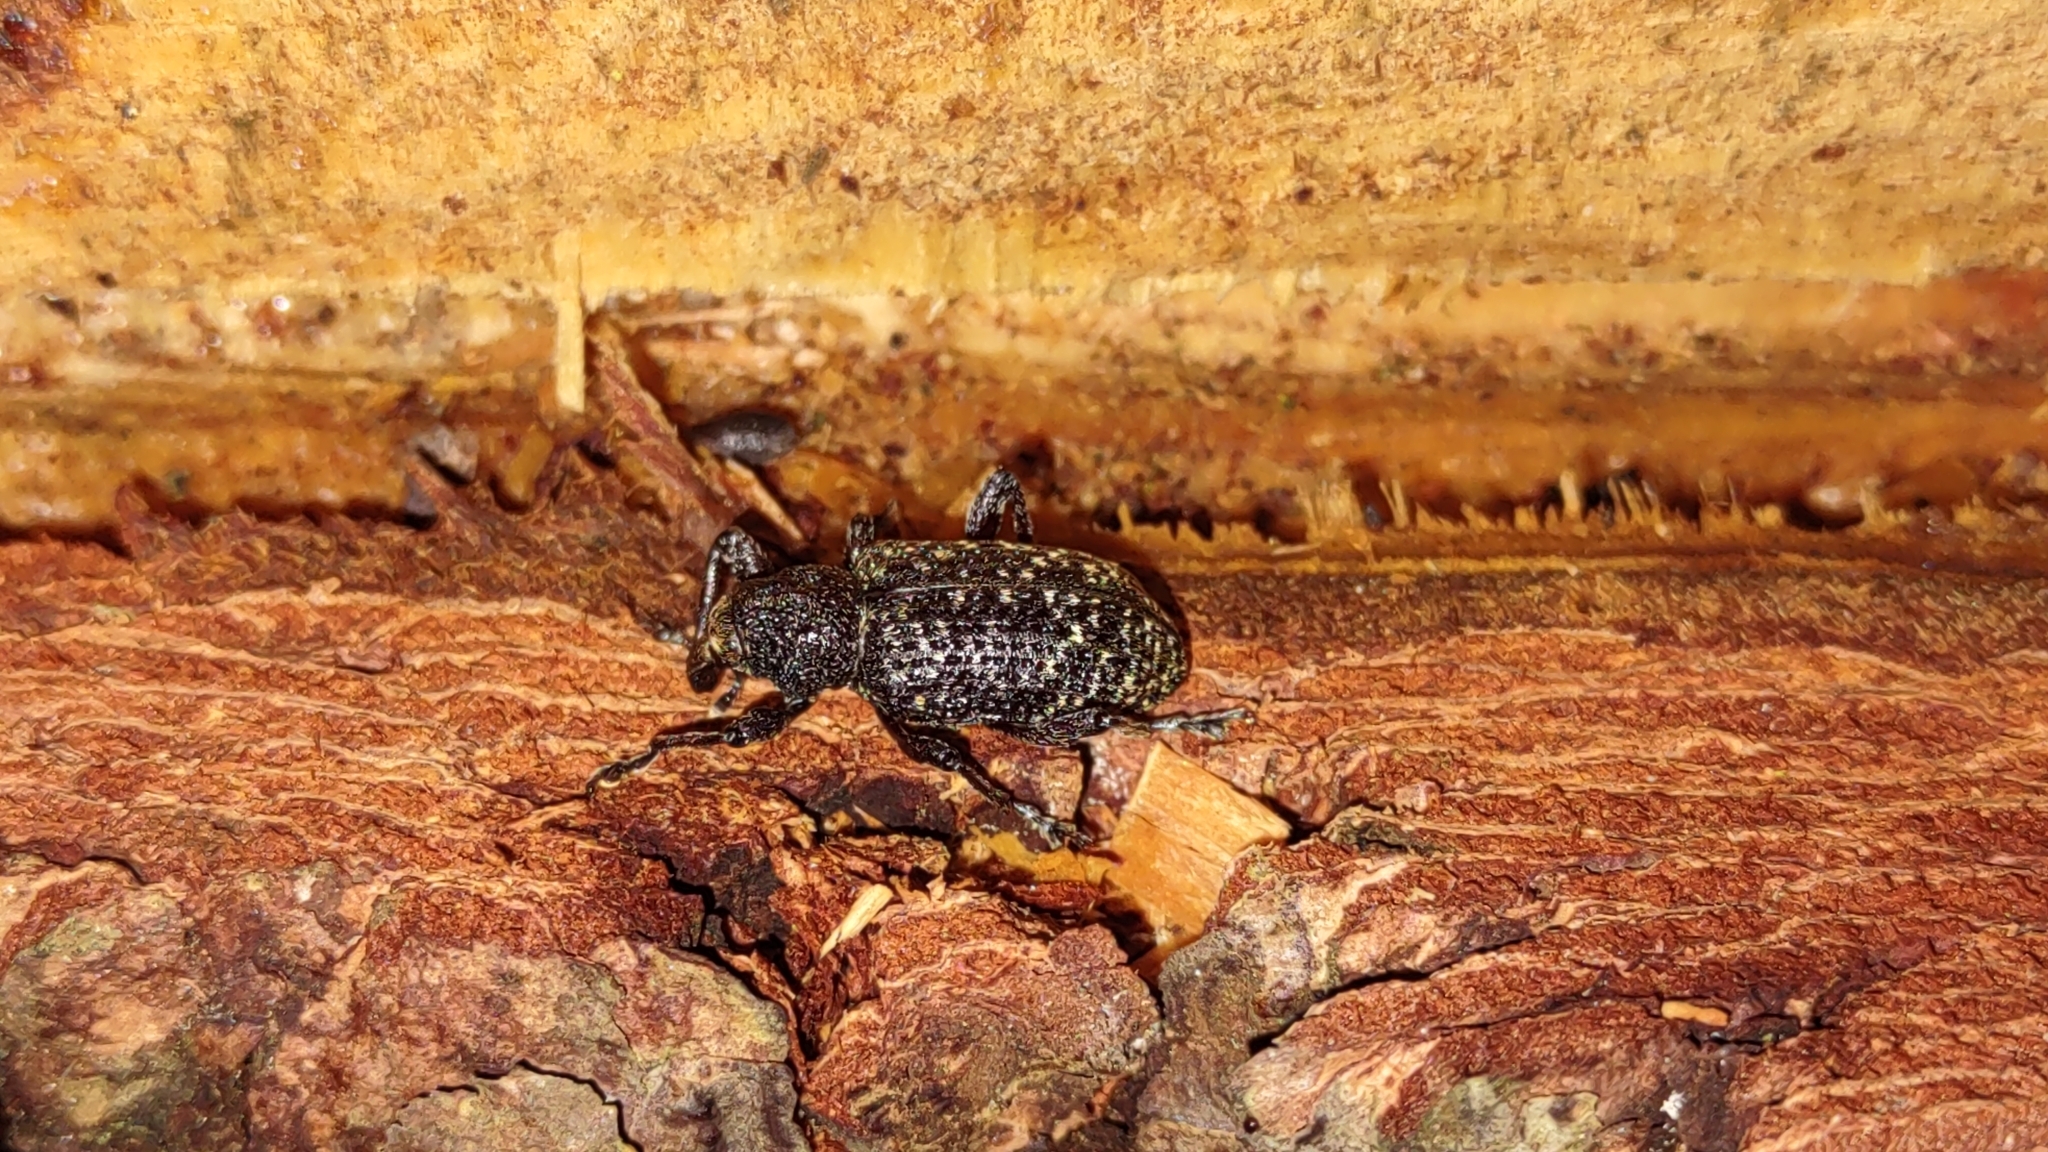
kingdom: Animalia
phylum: Arthropoda
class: Insecta
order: Coleoptera
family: Curculionidae
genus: Hylobius
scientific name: Hylobius excavatus
